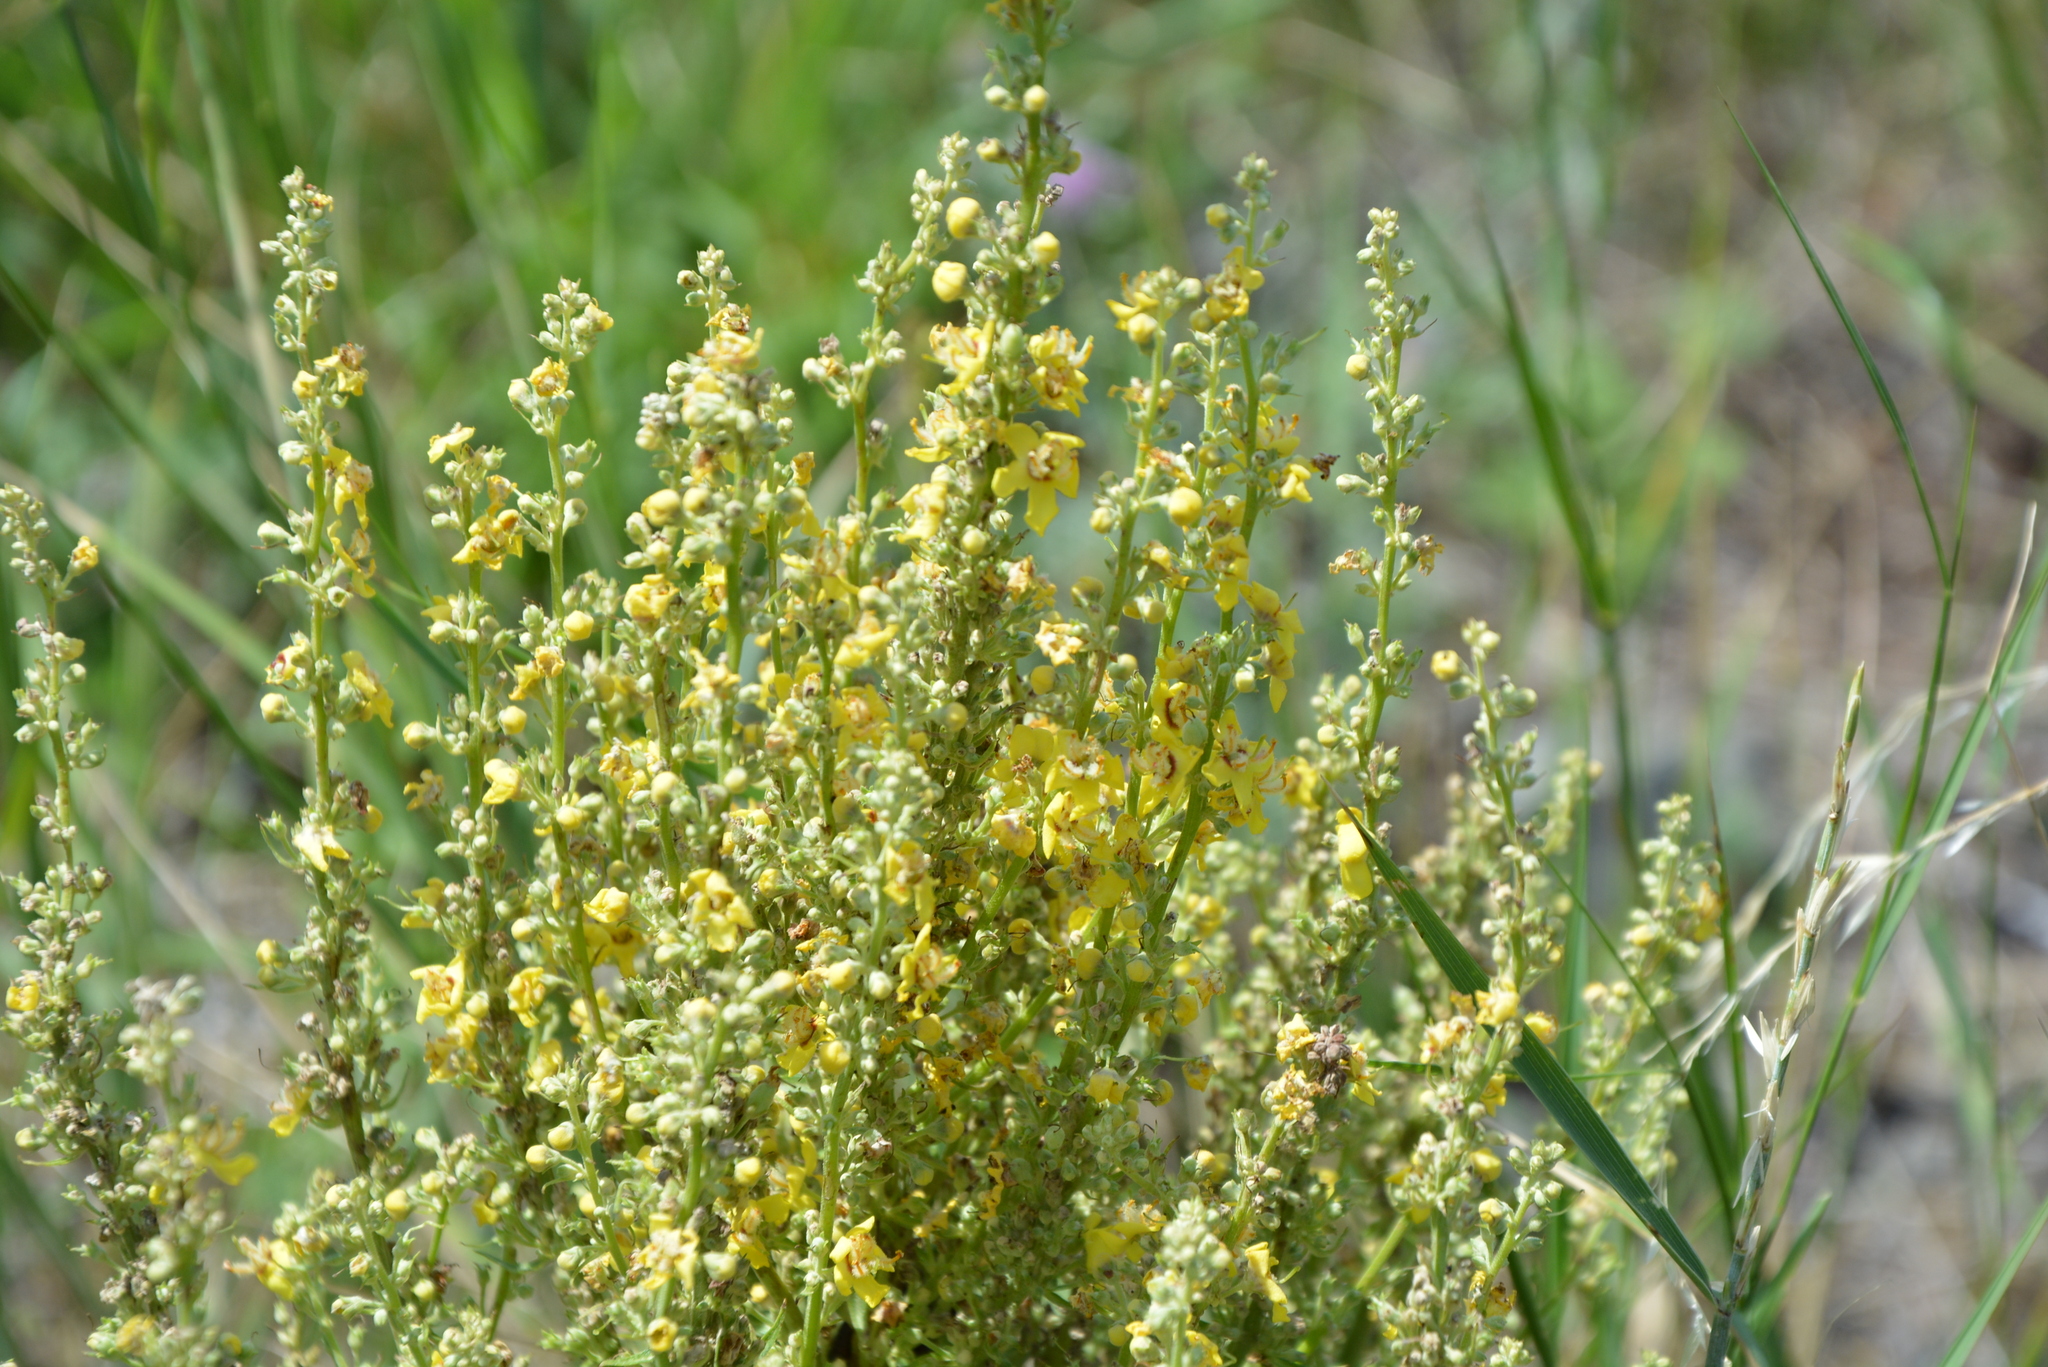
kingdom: Plantae
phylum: Tracheophyta
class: Magnoliopsida
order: Lamiales
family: Scrophulariaceae
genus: Verbascum
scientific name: Verbascum lychnitis
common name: White mullein
